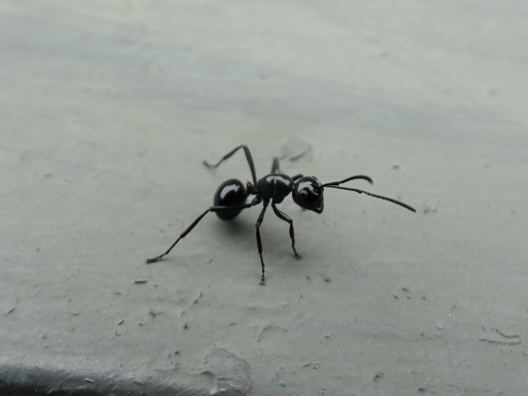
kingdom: Animalia
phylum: Arthropoda
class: Insecta
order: Hymenoptera
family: Formicidae
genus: Polyrhachis
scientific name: Polyrhachis demangei
